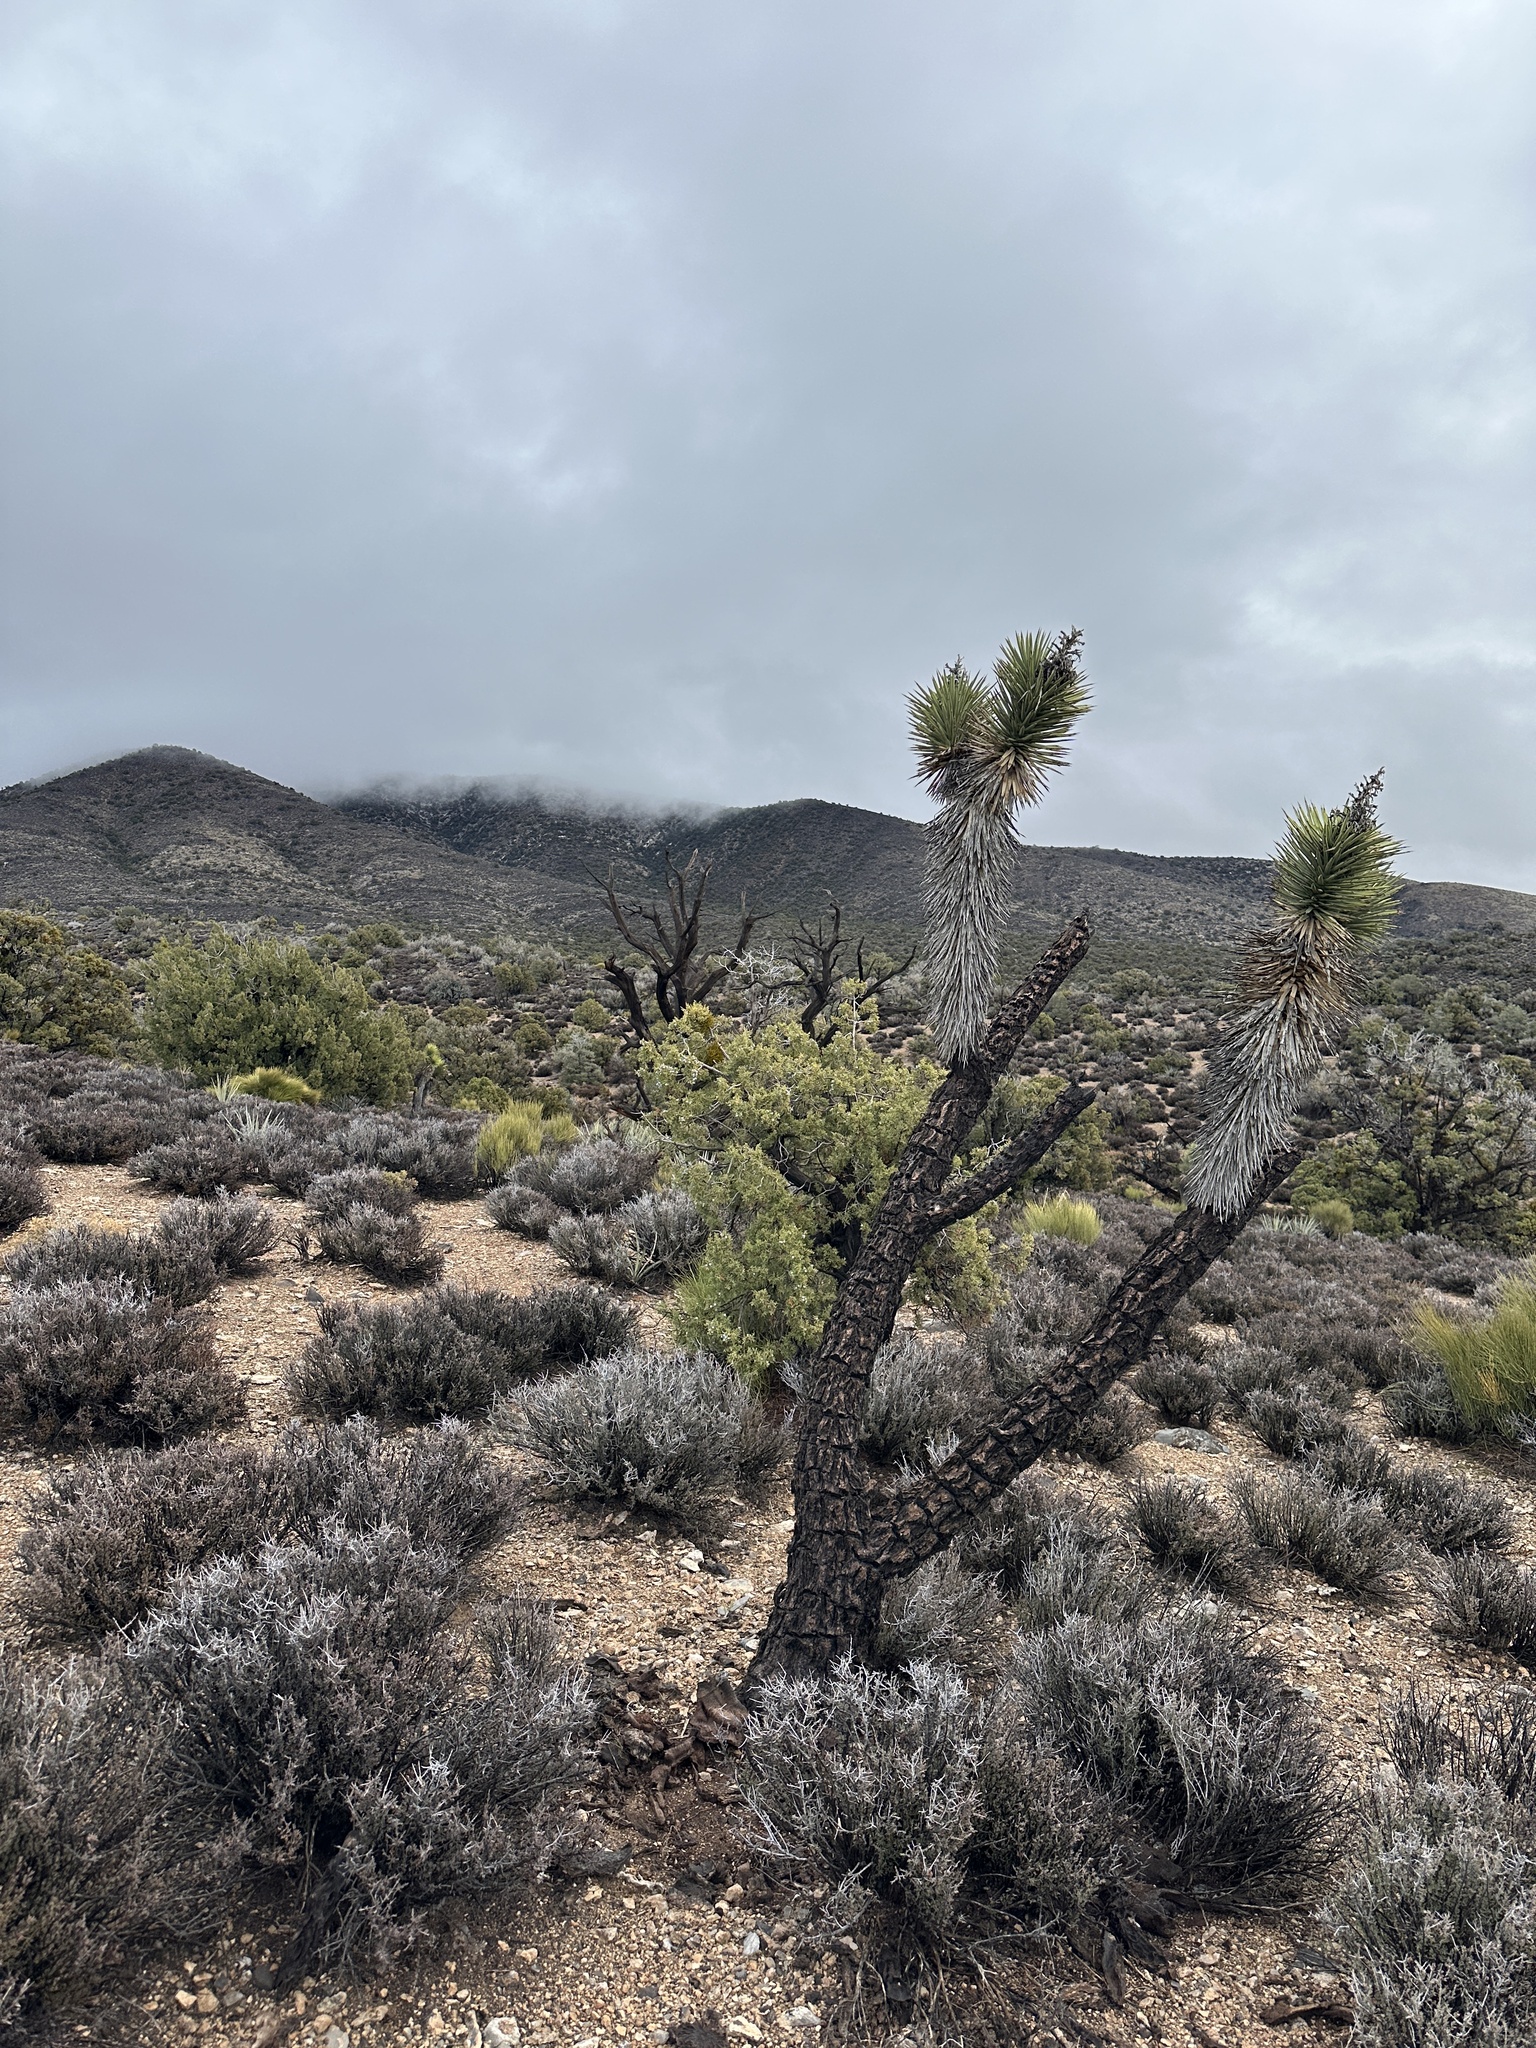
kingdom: Plantae
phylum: Tracheophyta
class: Liliopsida
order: Asparagales
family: Asparagaceae
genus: Yucca
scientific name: Yucca brevifolia
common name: Joshua tree
